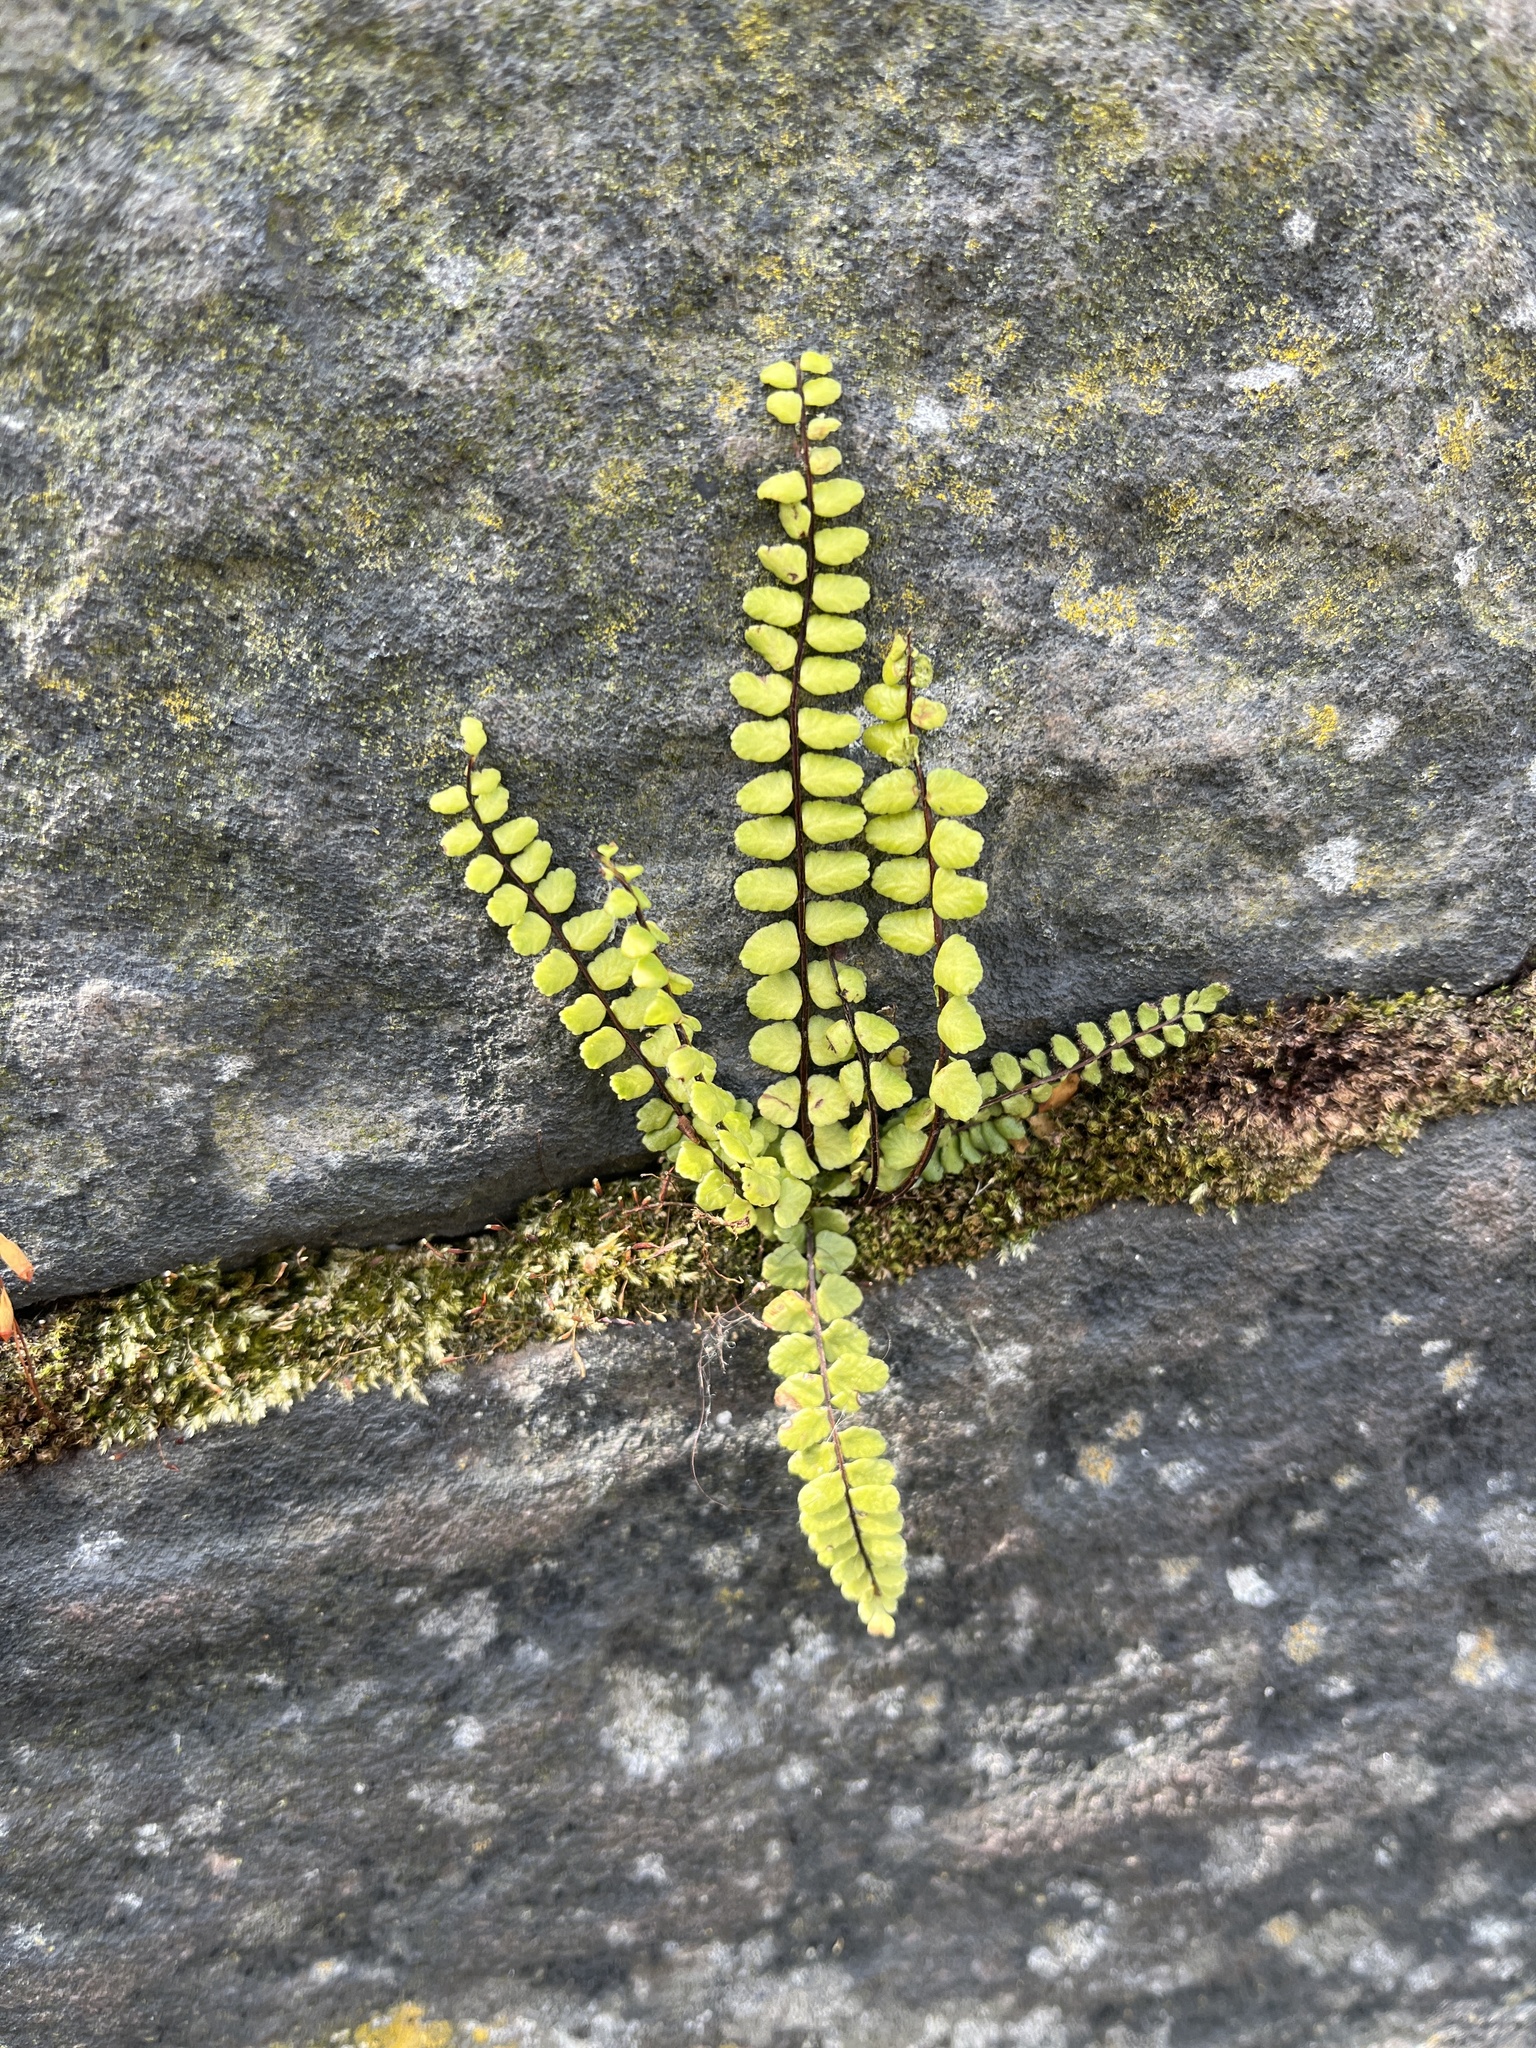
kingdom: Plantae
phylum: Tracheophyta
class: Polypodiopsida
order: Polypodiales
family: Aspleniaceae
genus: Asplenium
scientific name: Asplenium trichomanes
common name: Maidenhair spleenwort
